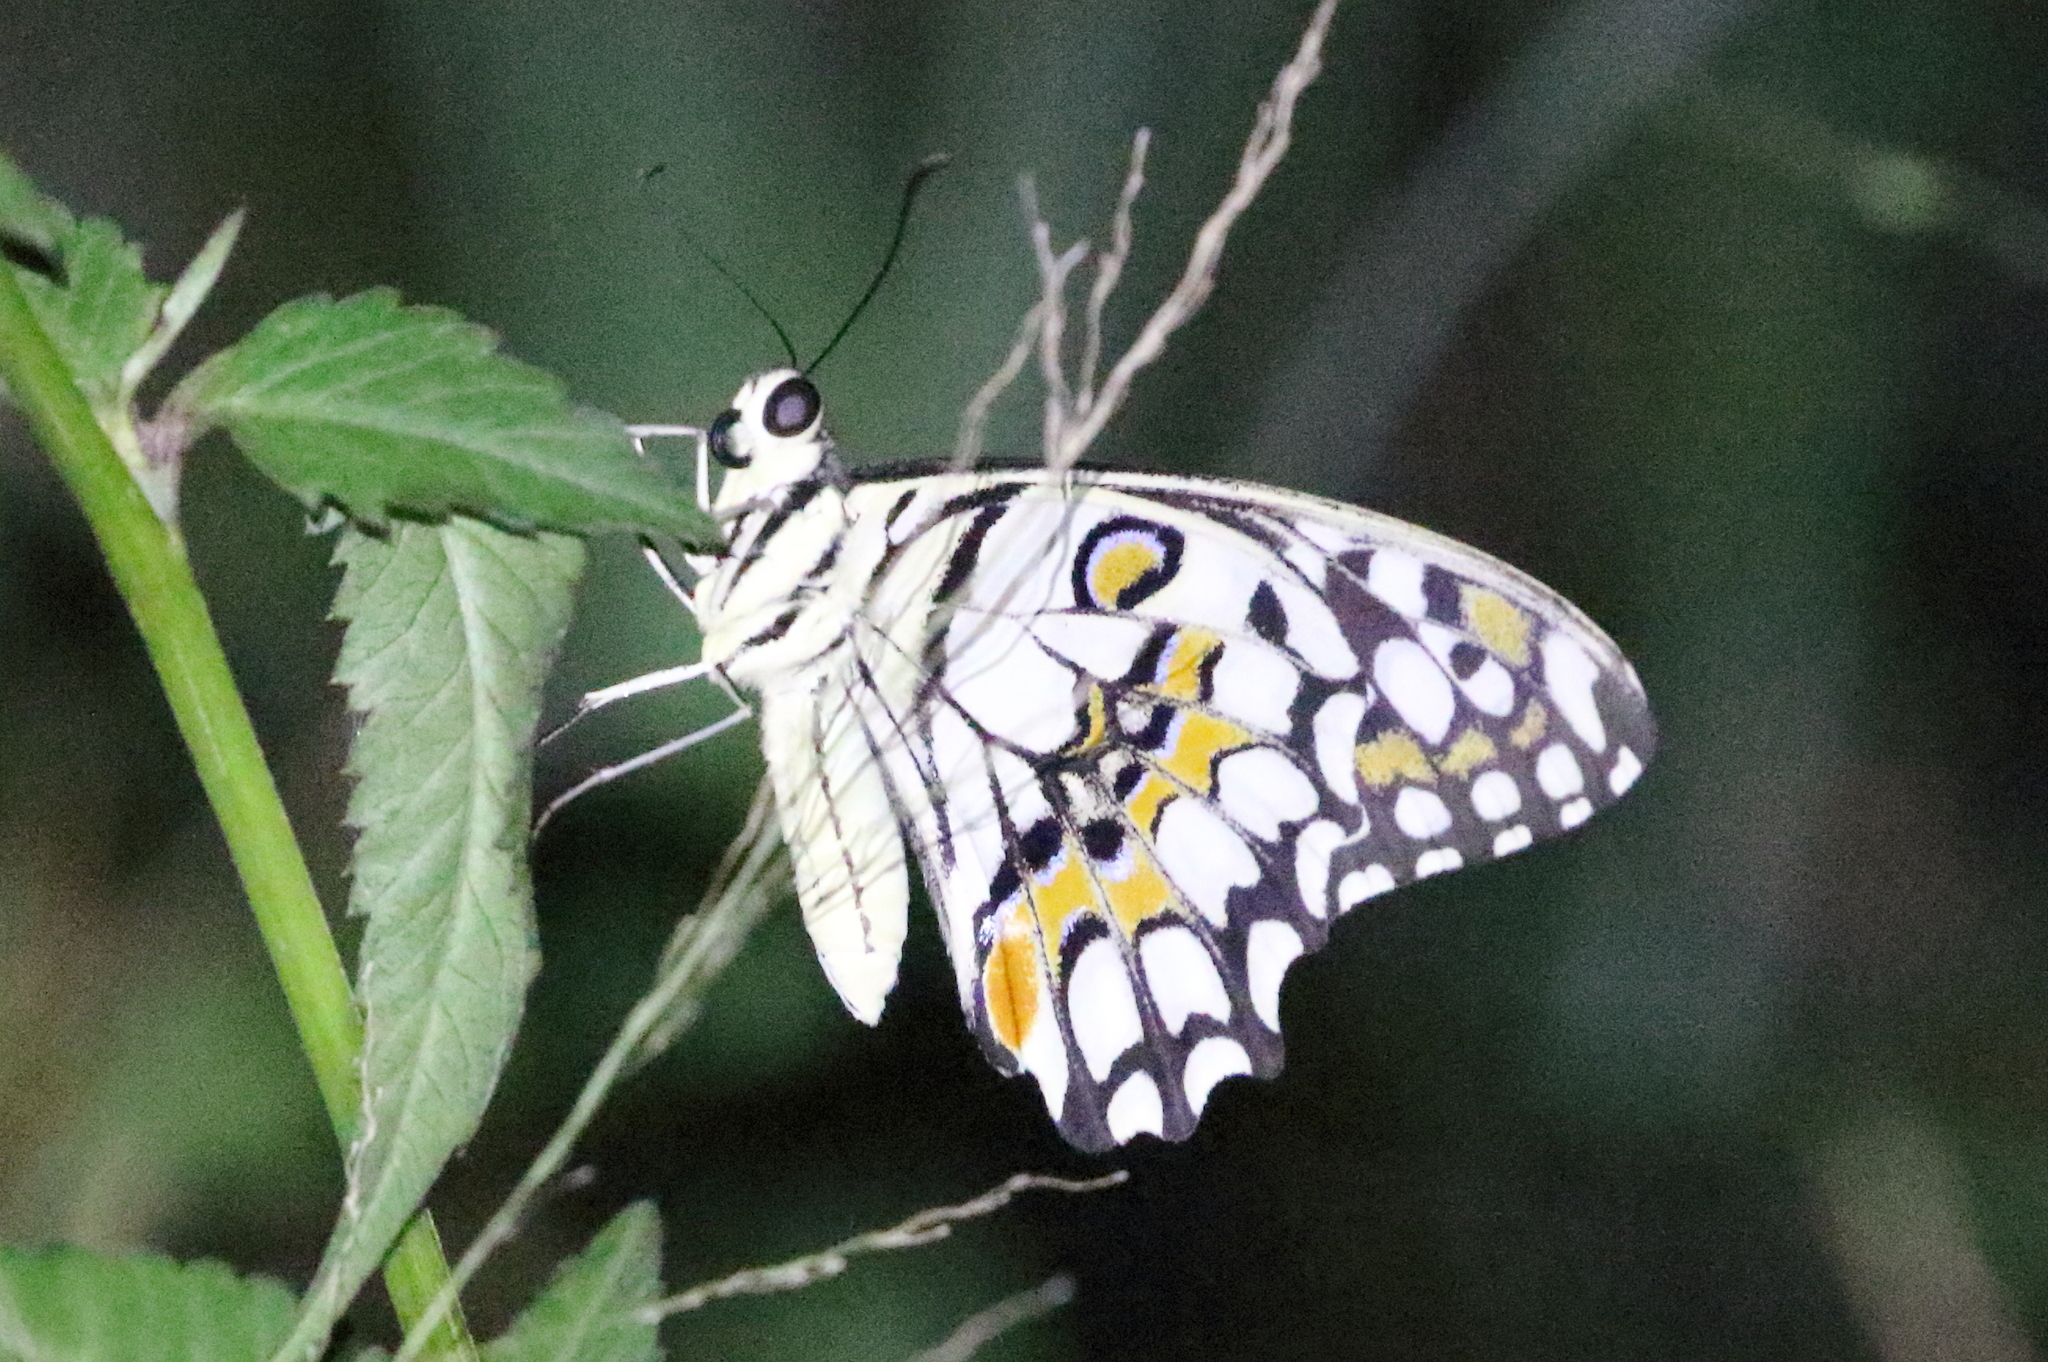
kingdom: Animalia
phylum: Arthropoda
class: Insecta
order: Lepidoptera
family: Papilionidae
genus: Papilio
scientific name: Papilio demoleus
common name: Lime butterfly
